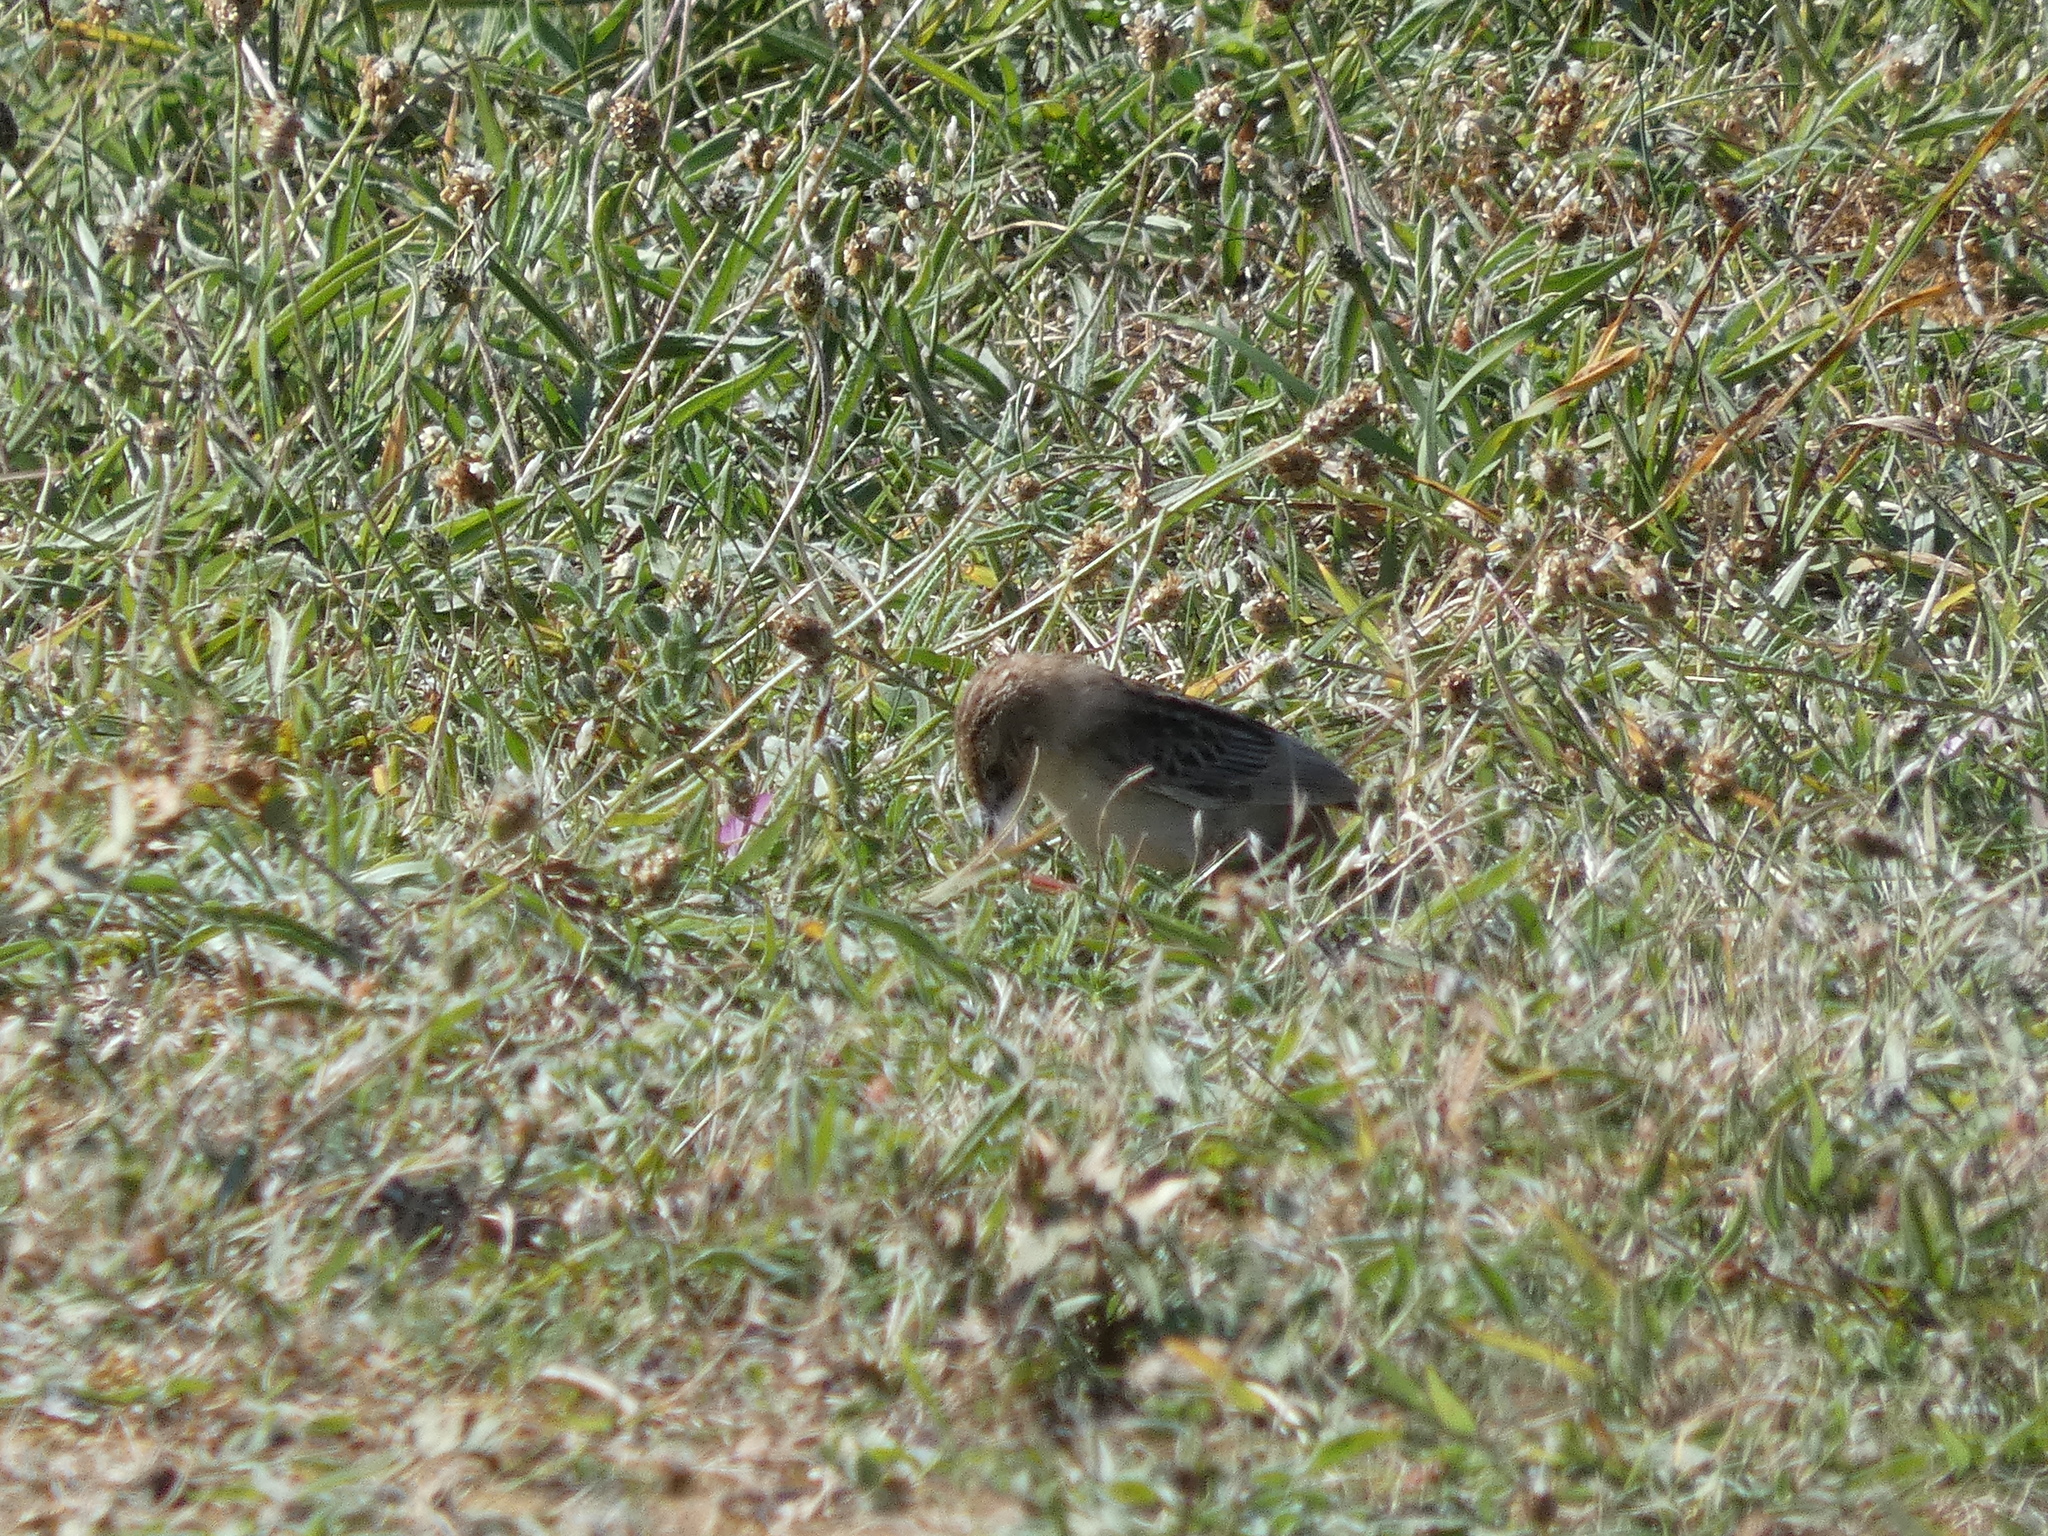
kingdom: Animalia
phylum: Chordata
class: Aves
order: Passeriformes
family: Cisticolidae
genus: Cisticola
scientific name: Cisticola juncidis
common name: Zitting cisticola
